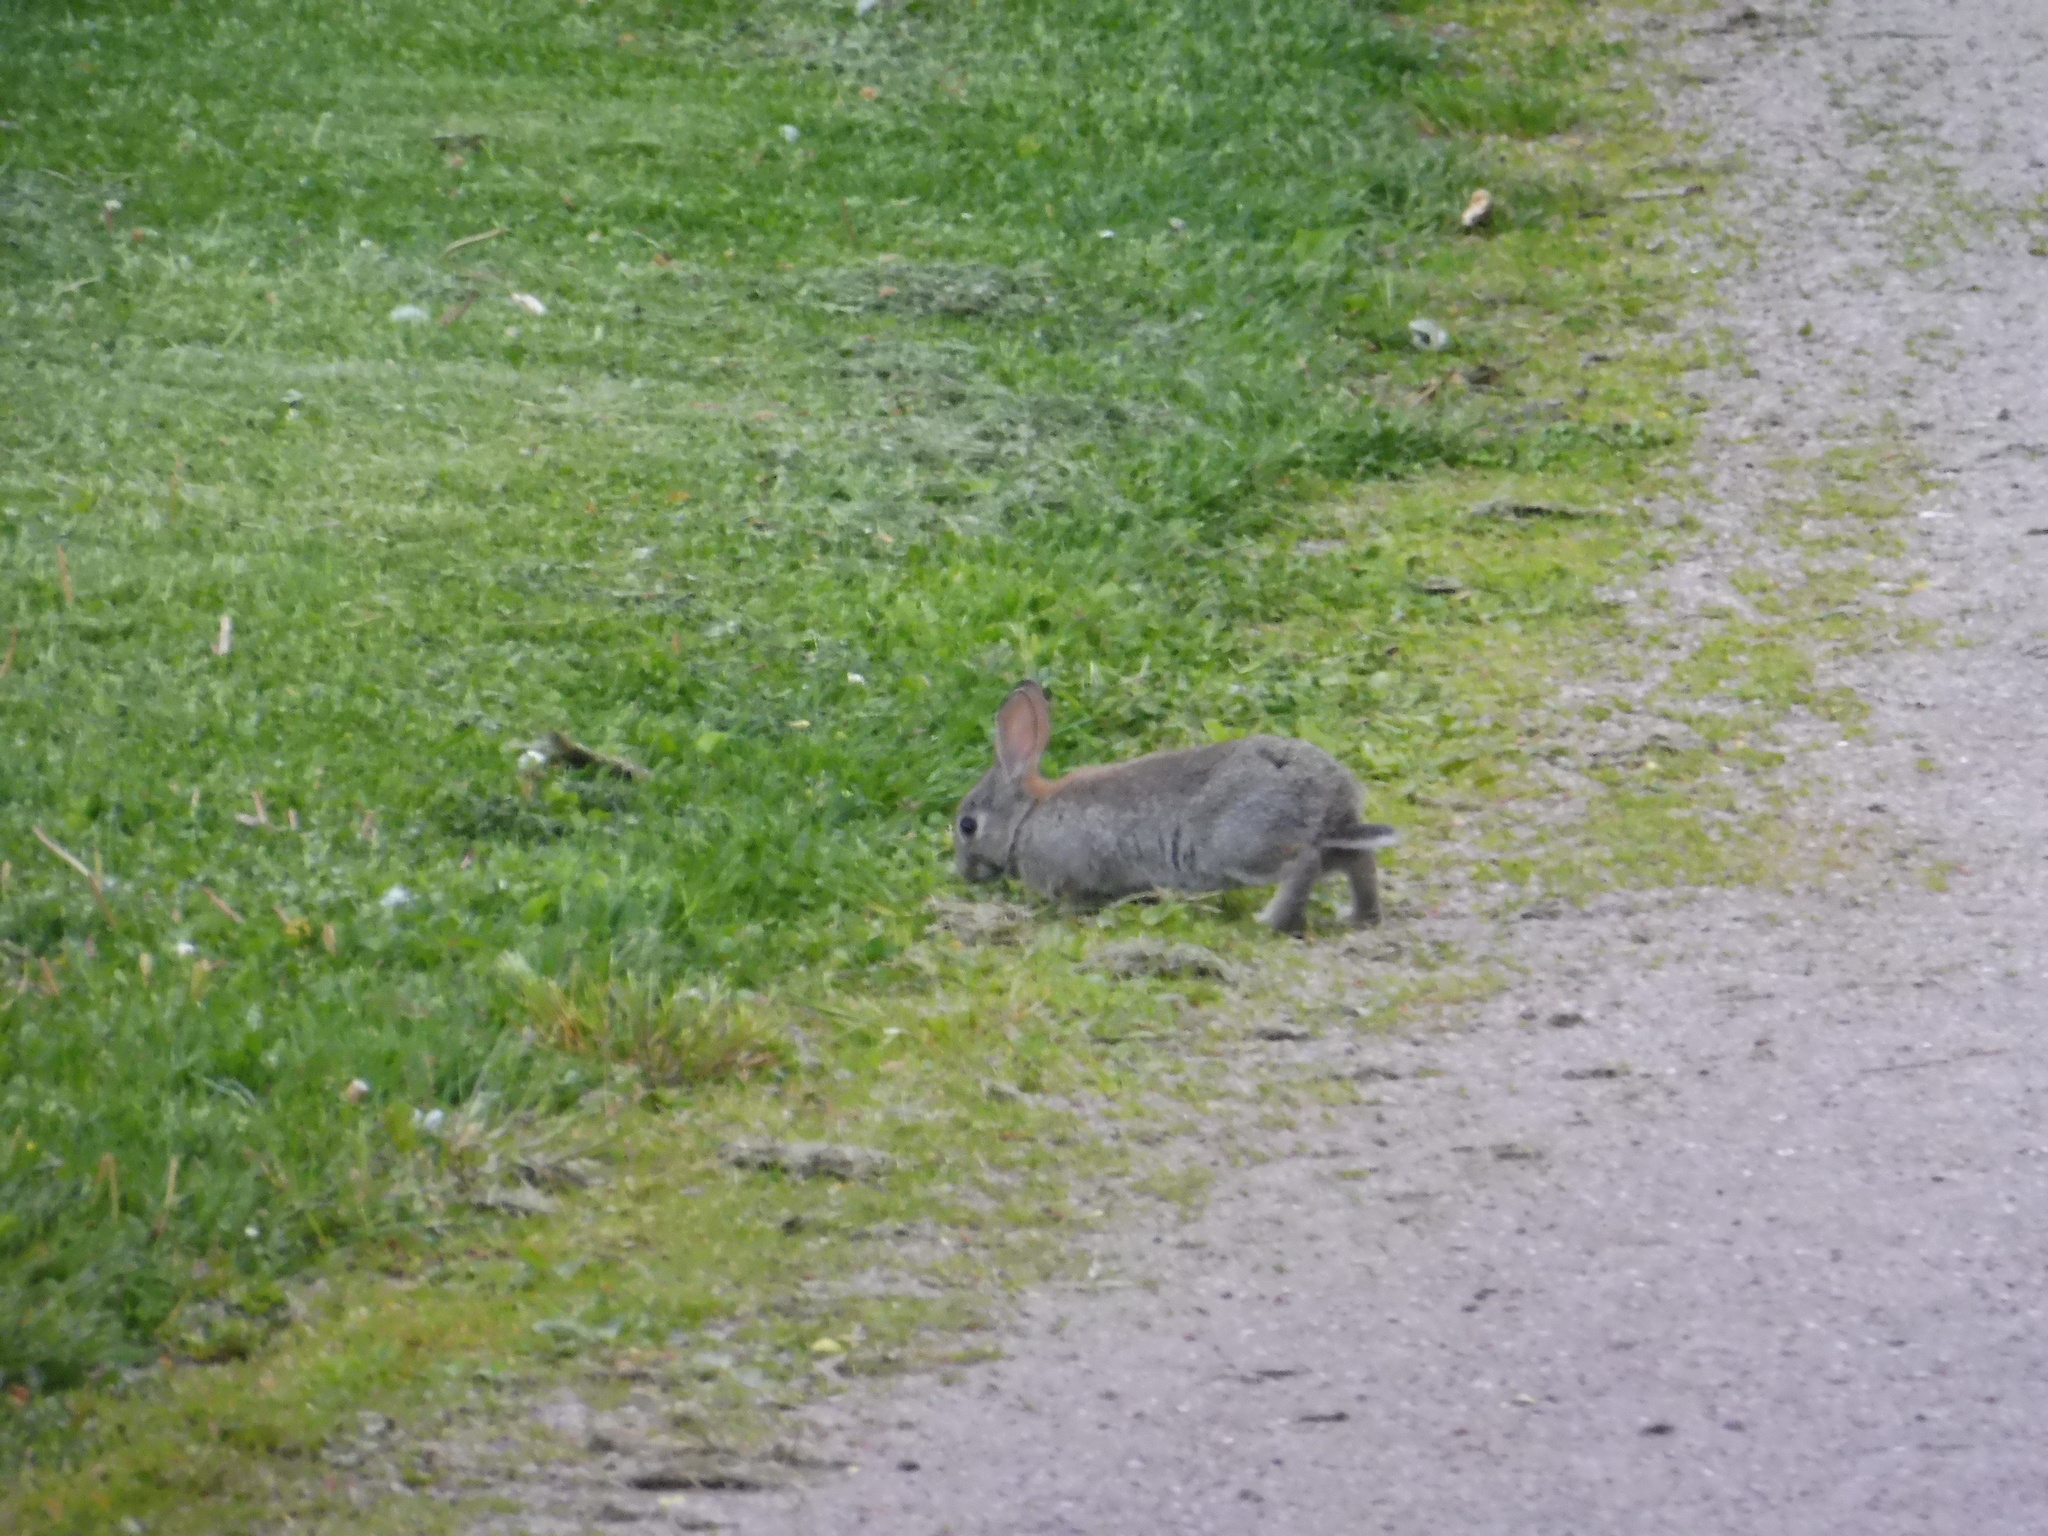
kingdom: Animalia
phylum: Chordata
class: Mammalia
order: Lagomorpha
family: Leporidae
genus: Oryctolagus
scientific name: Oryctolagus cuniculus
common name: European rabbit
